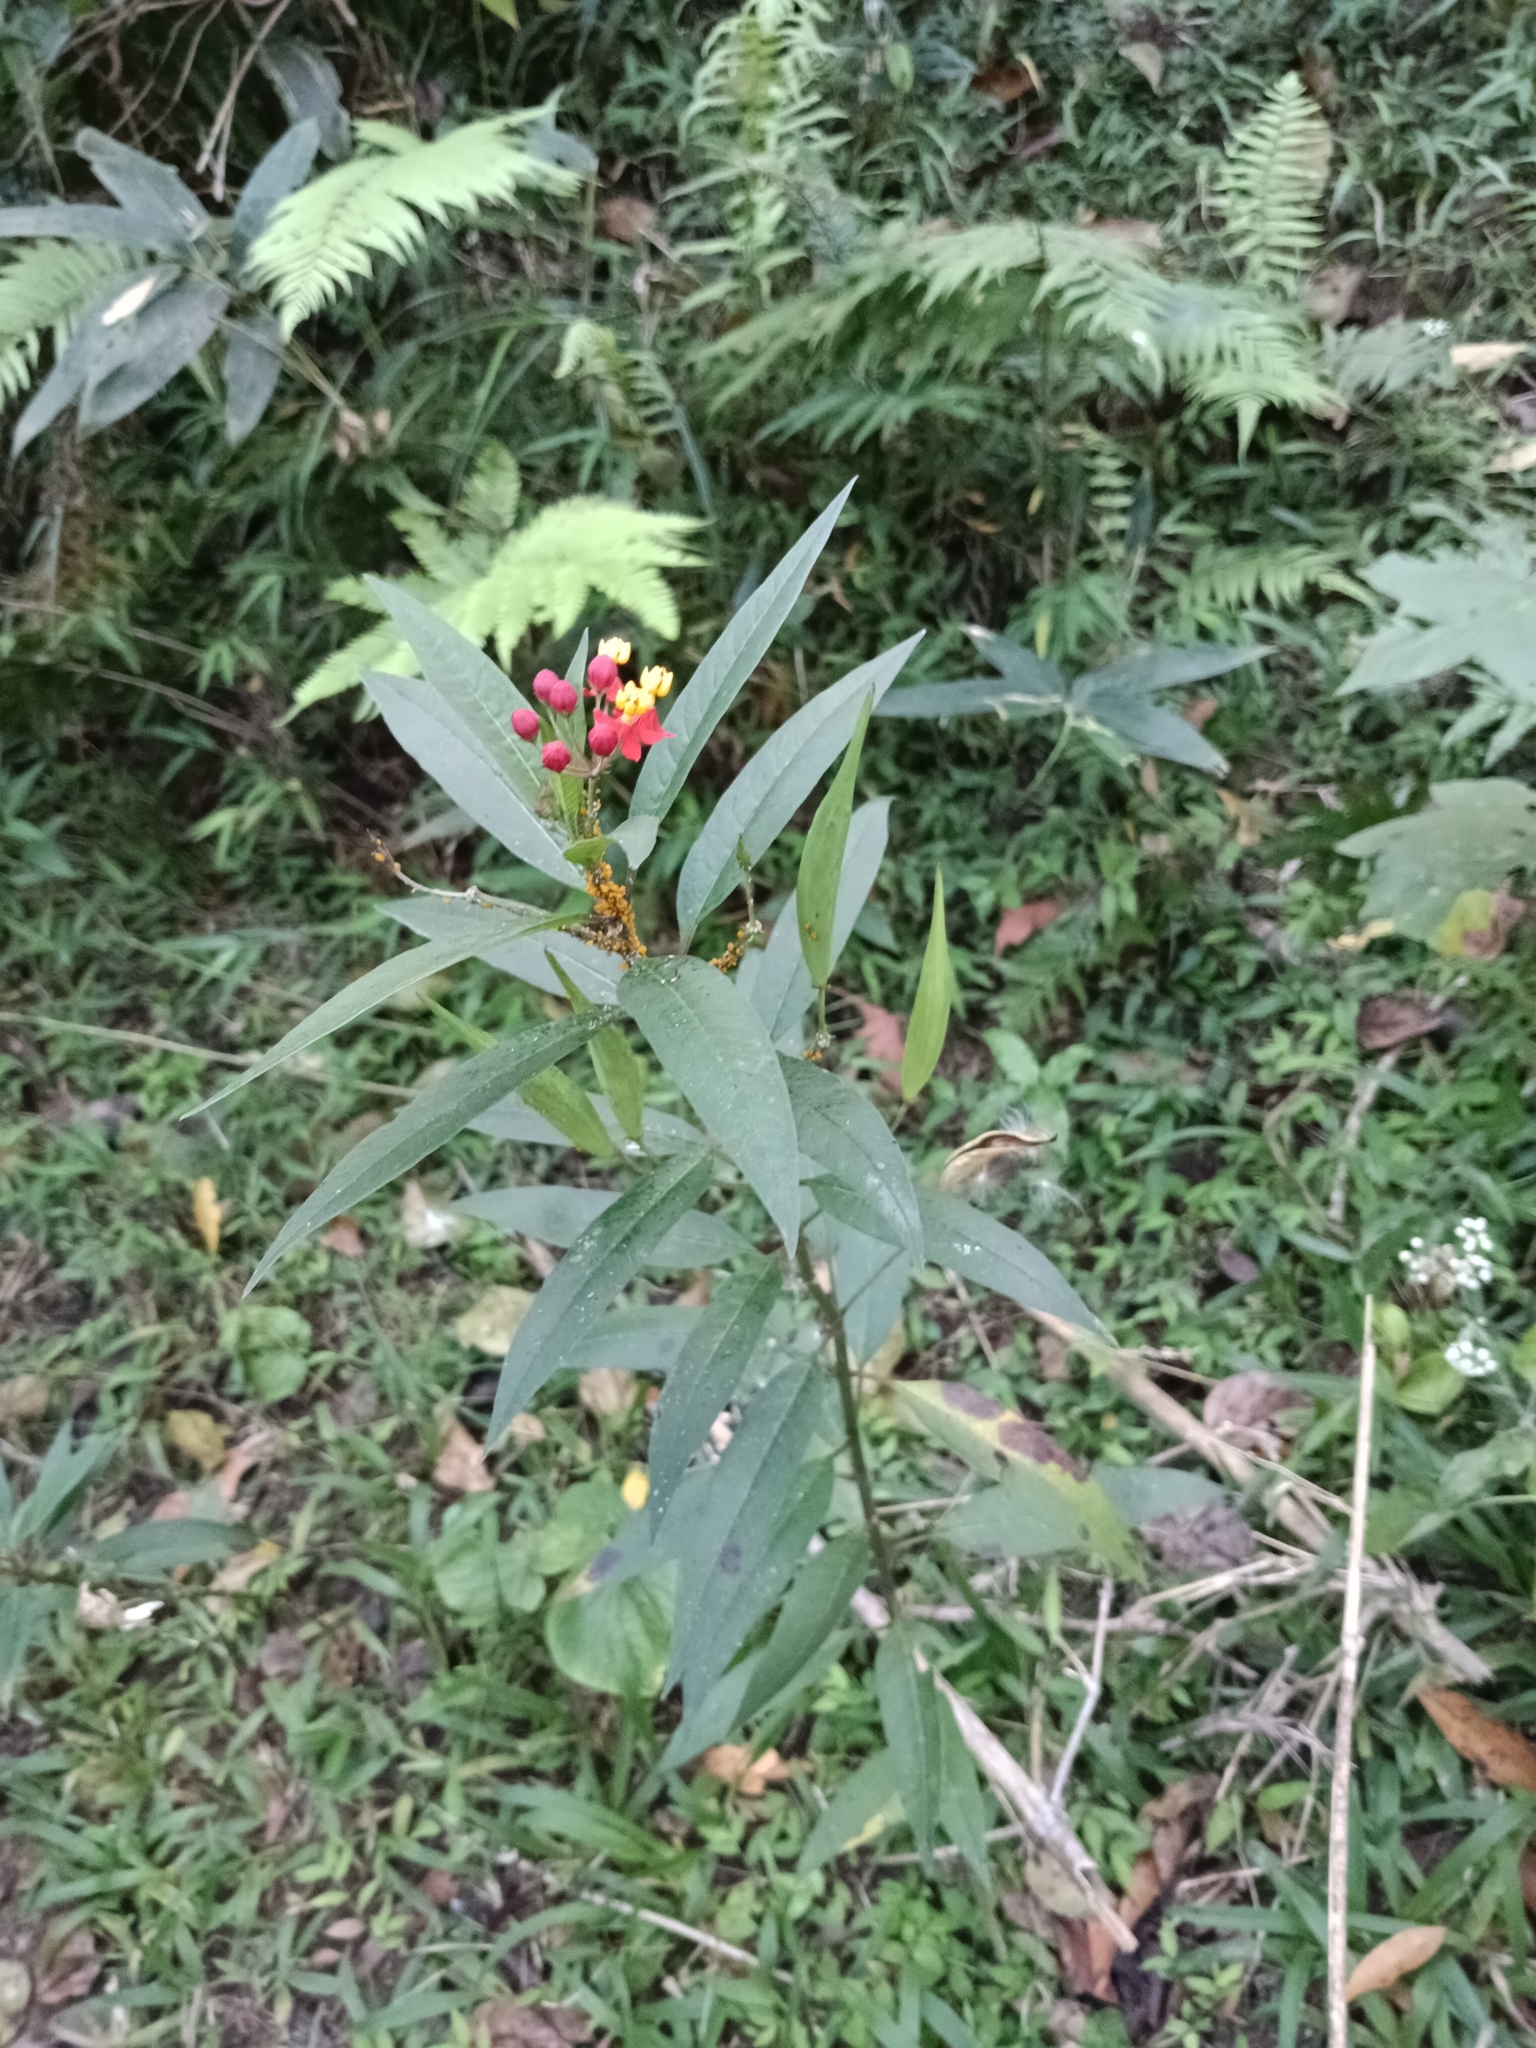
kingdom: Plantae
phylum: Tracheophyta
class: Magnoliopsida
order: Gentianales
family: Apocynaceae
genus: Asclepias
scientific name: Asclepias curassavica
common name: Bloodflower
